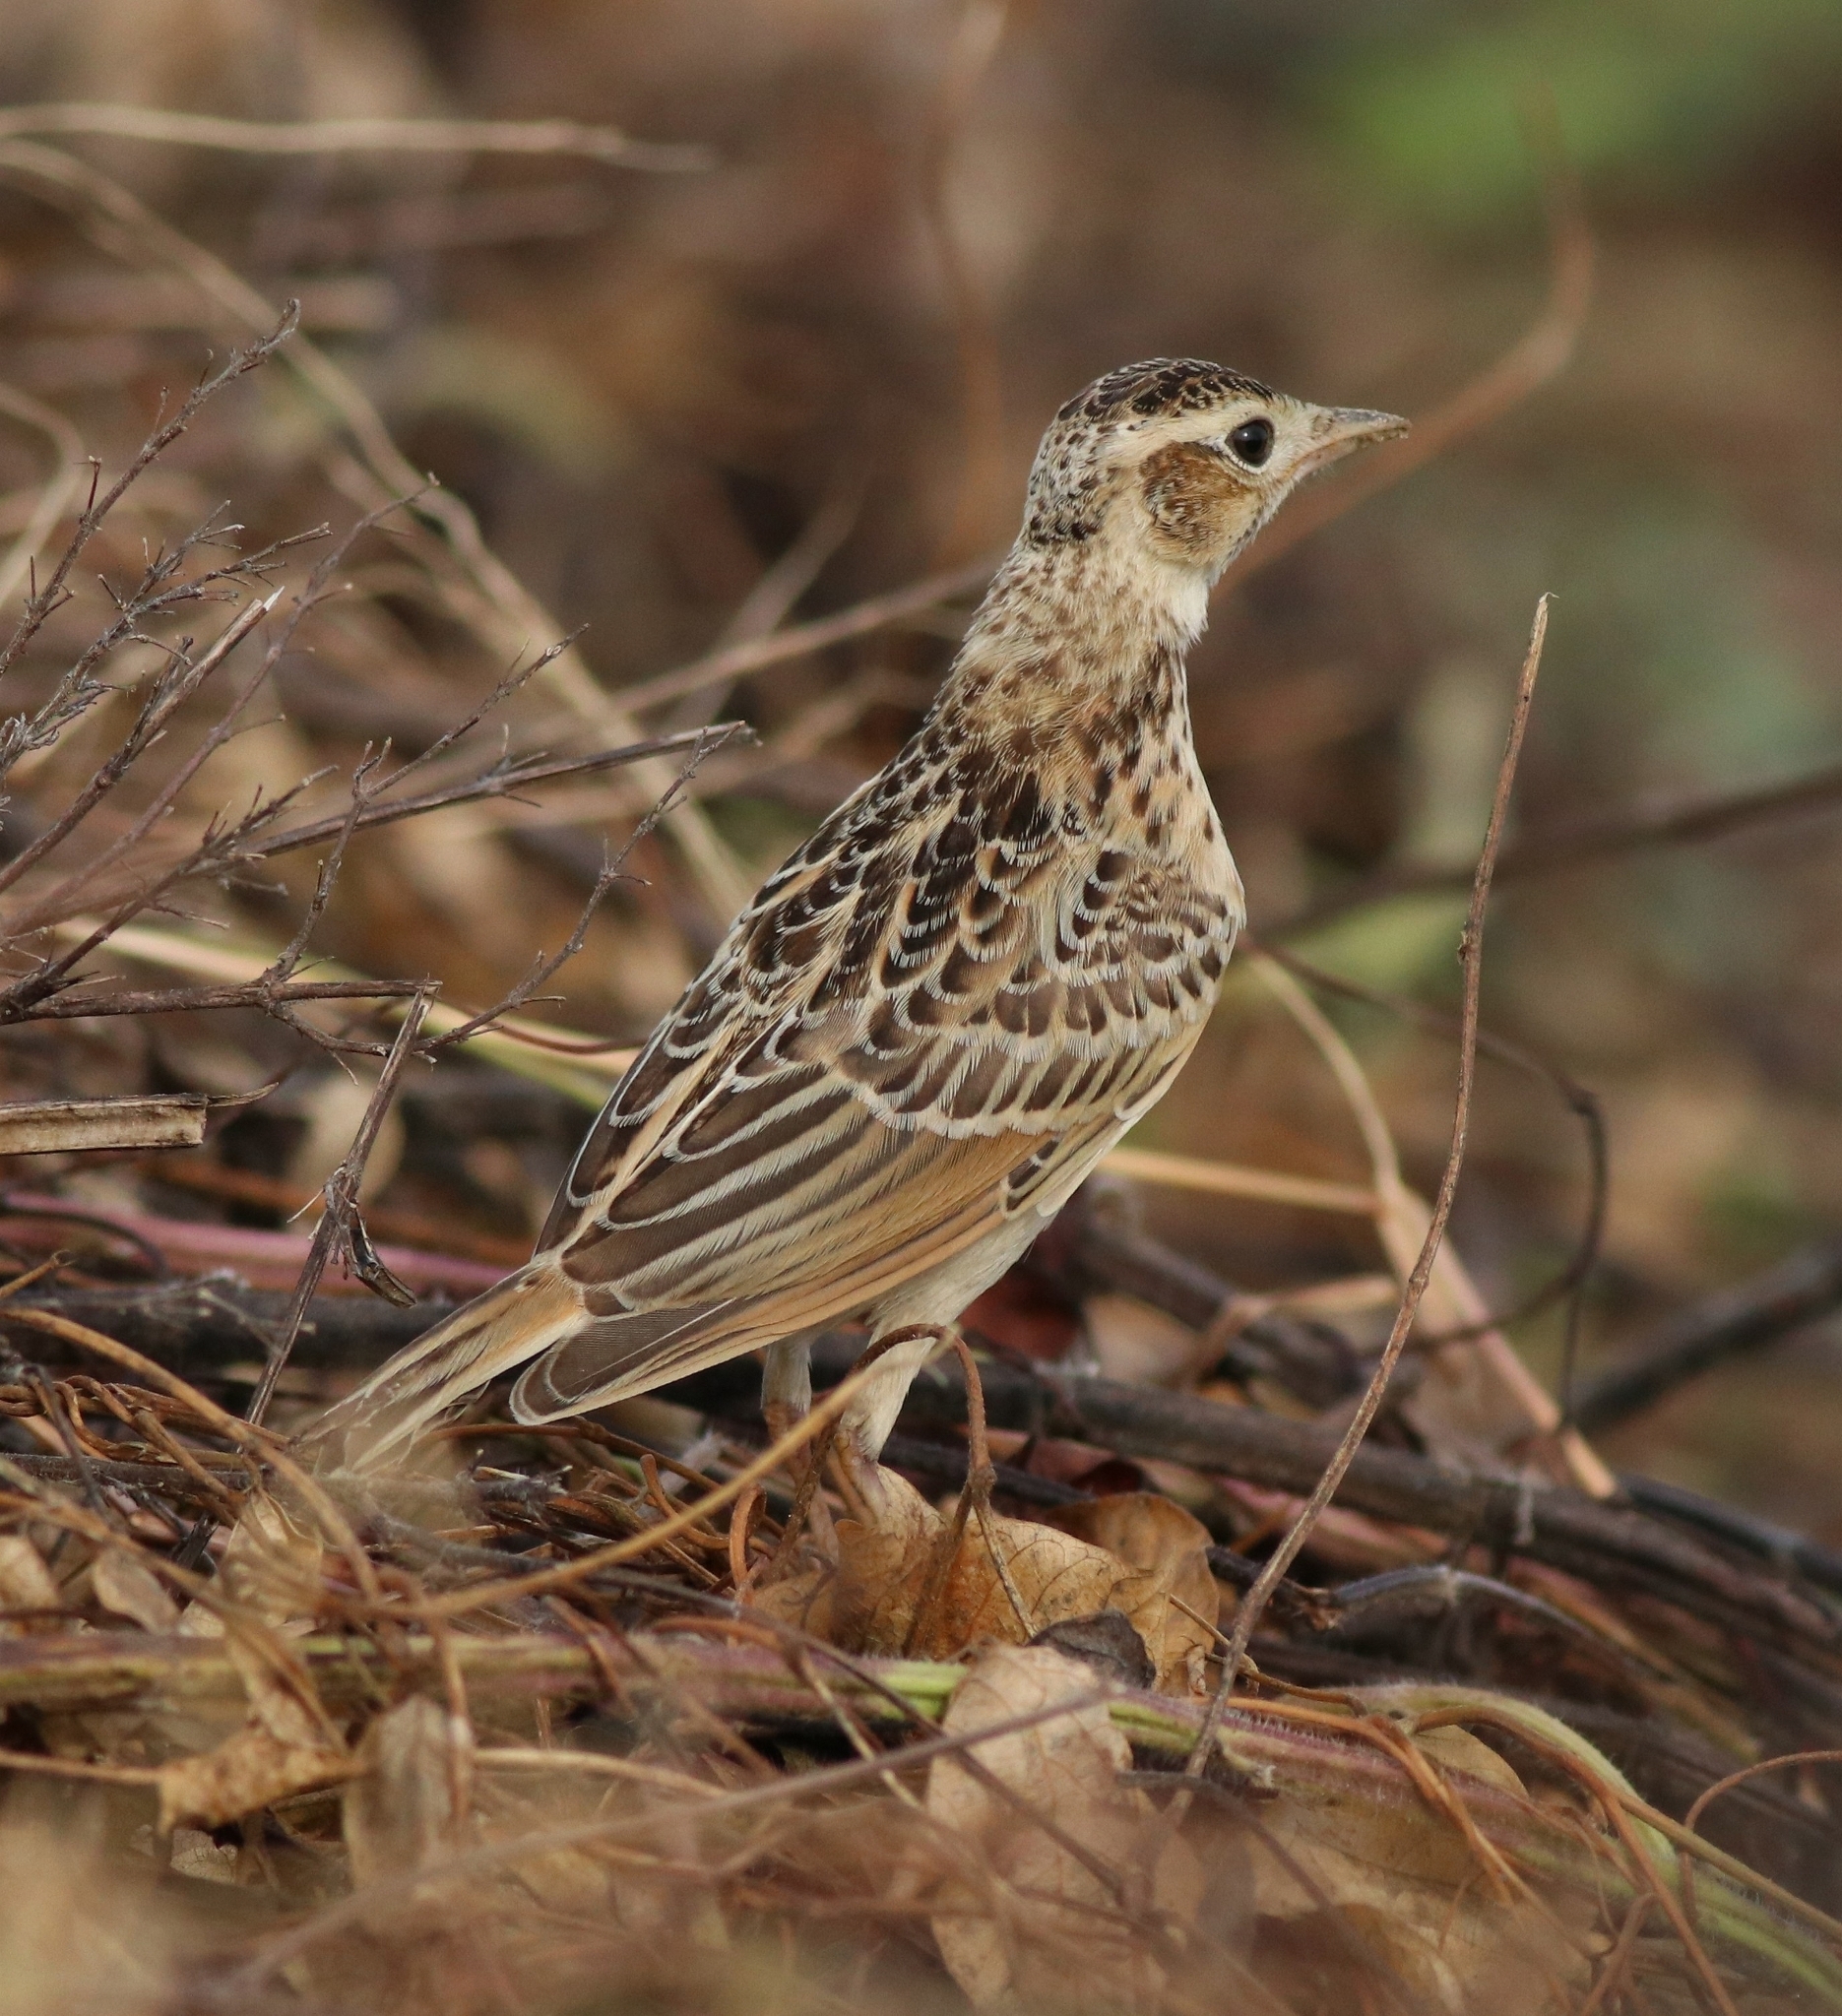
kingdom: Animalia
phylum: Chordata
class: Aves
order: Passeriformes
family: Alaudidae
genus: Alauda
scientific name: Alauda gulgula
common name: Oriental skylark
